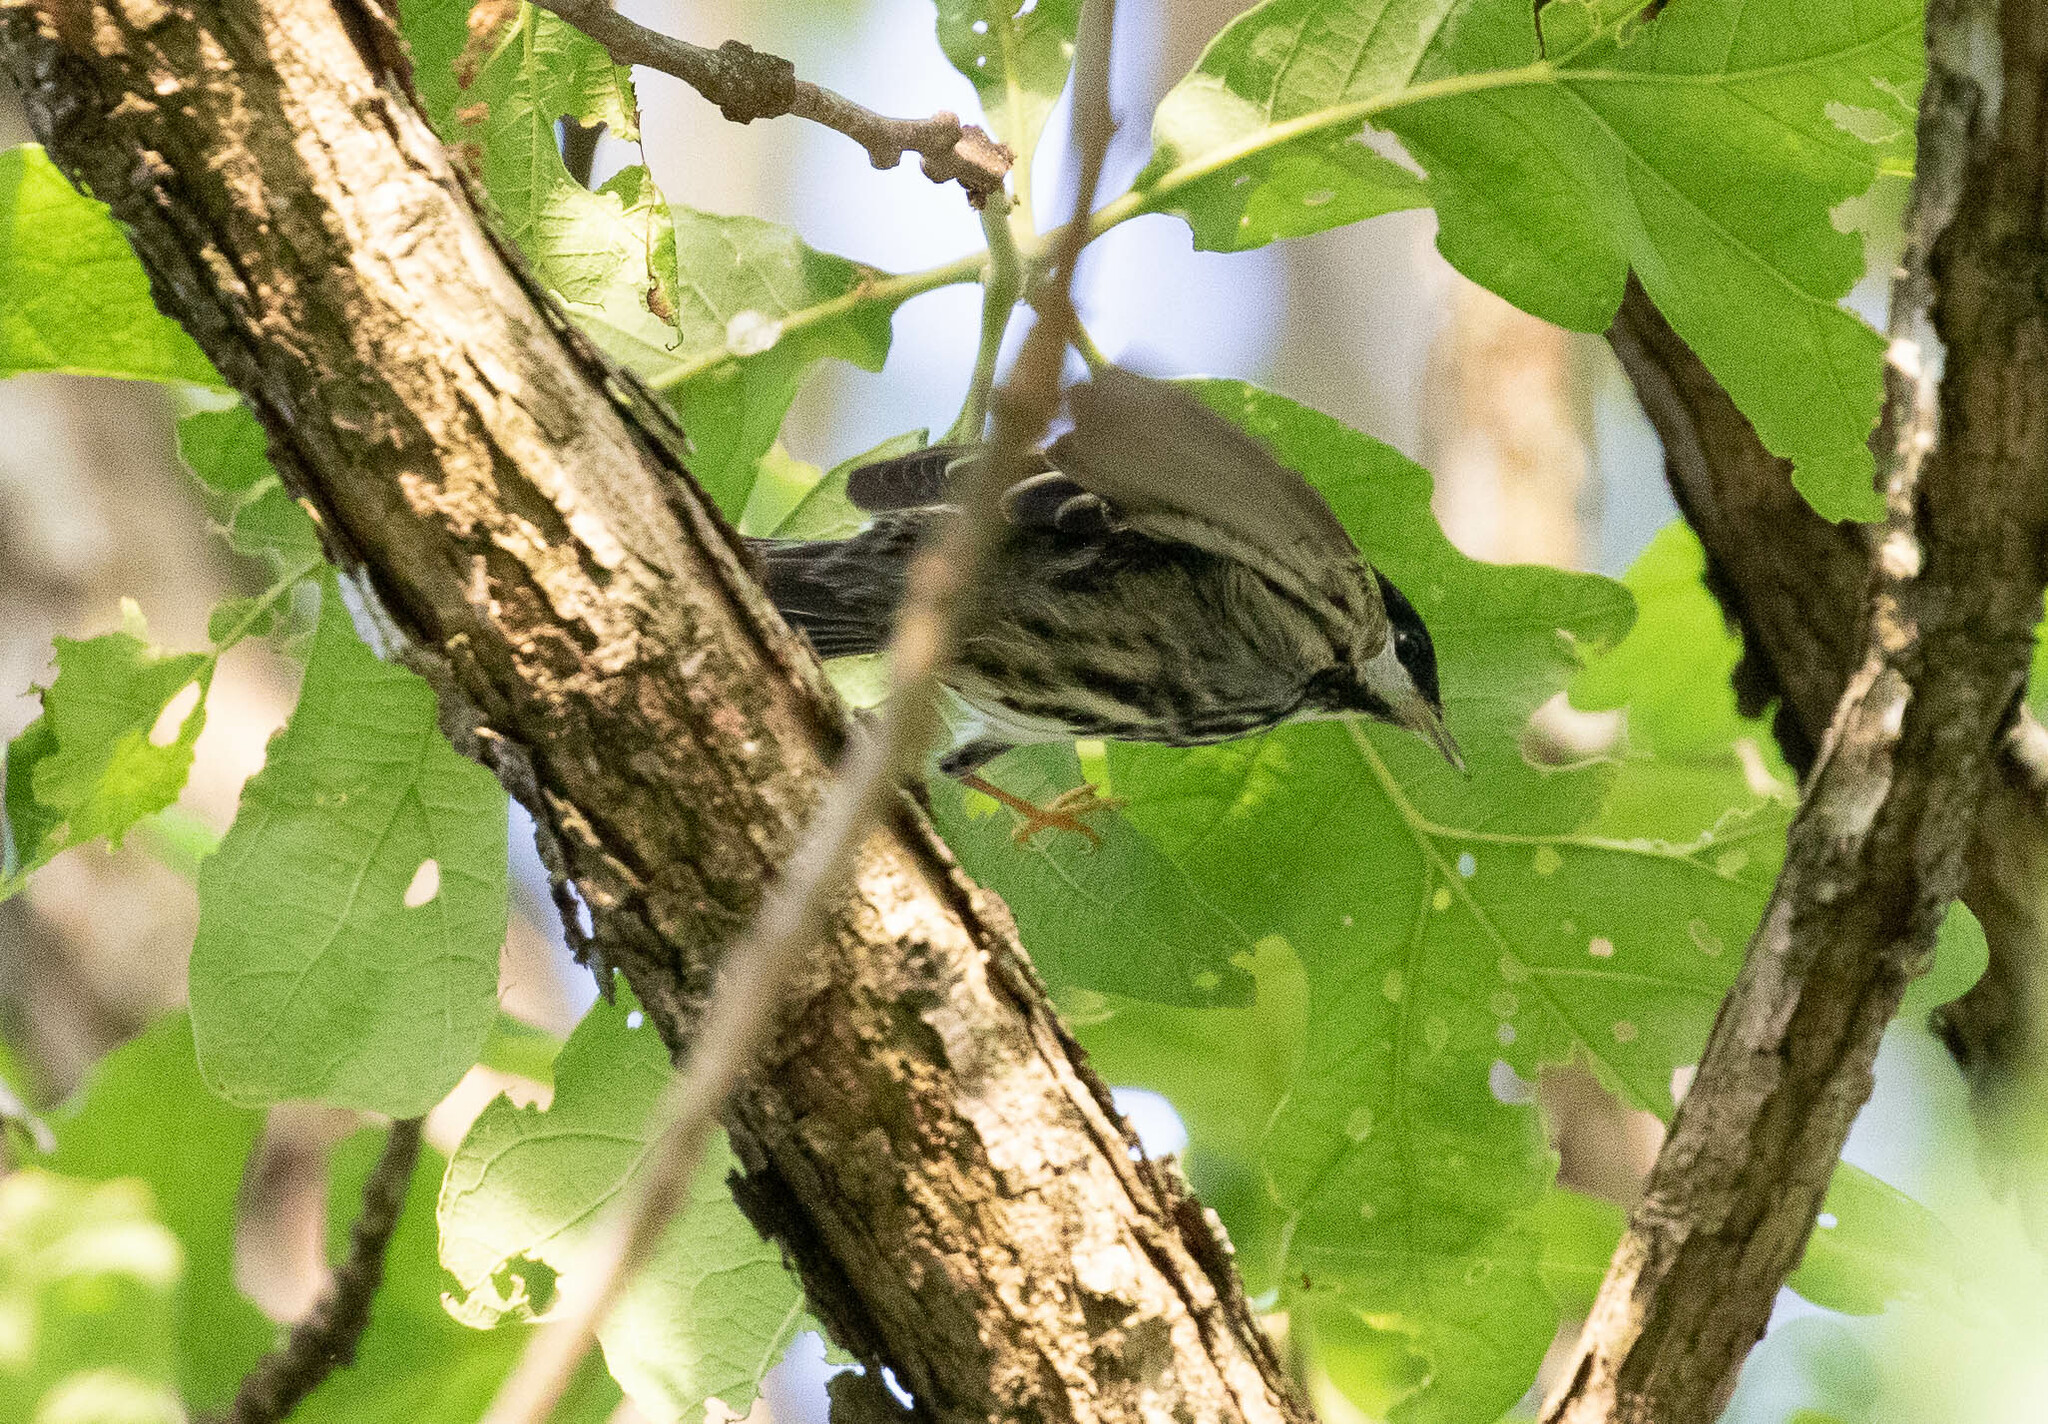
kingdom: Animalia
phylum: Chordata
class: Aves
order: Passeriformes
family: Parulidae
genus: Setophaga
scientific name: Setophaga striata
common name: Blackpoll warbler
